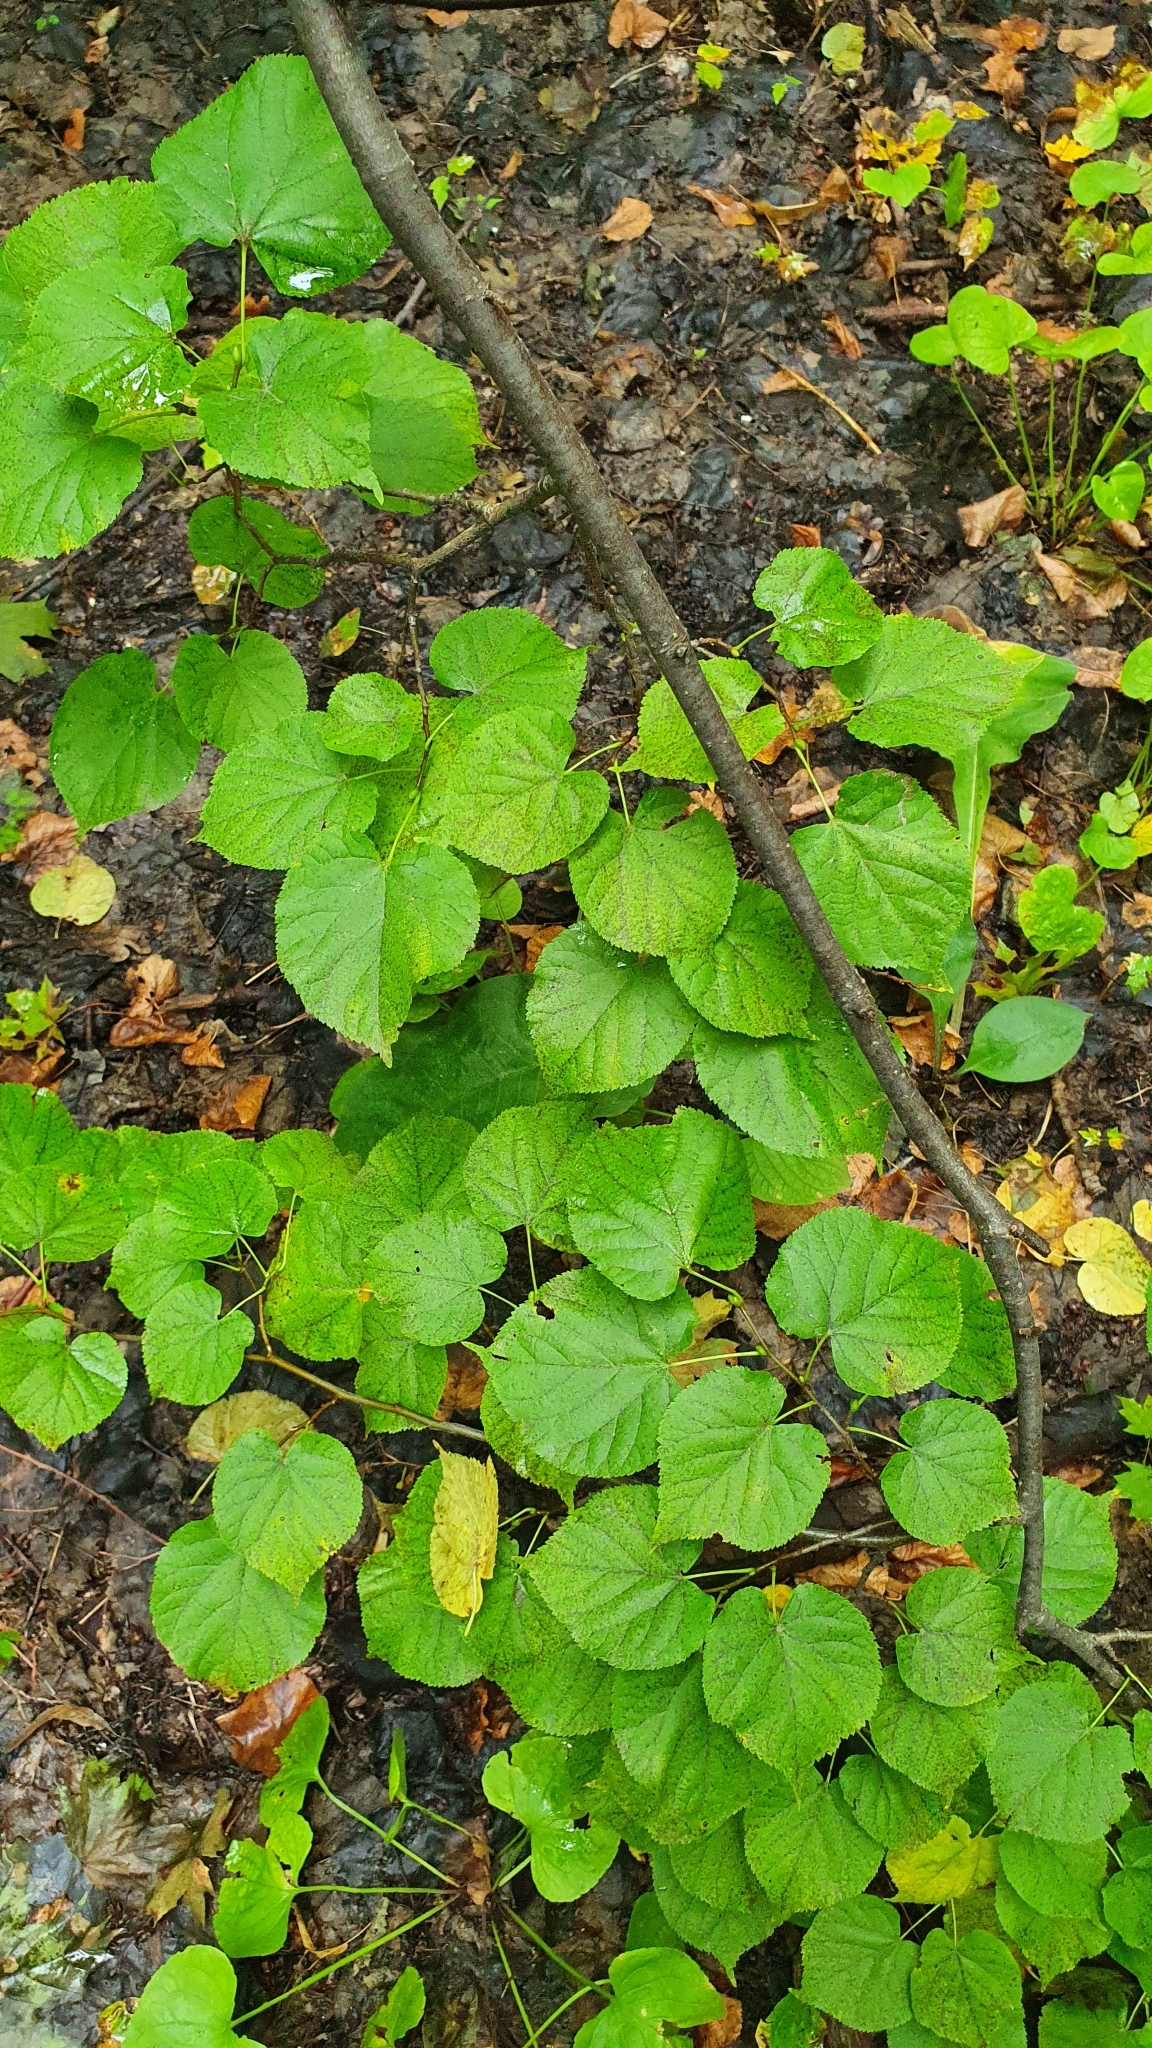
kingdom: Plantae
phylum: Tracheophyta
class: Magnoliopsida
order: Malvales
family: Malvaceae
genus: Tilia
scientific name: Tilia cordata
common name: Small-leaved lime
